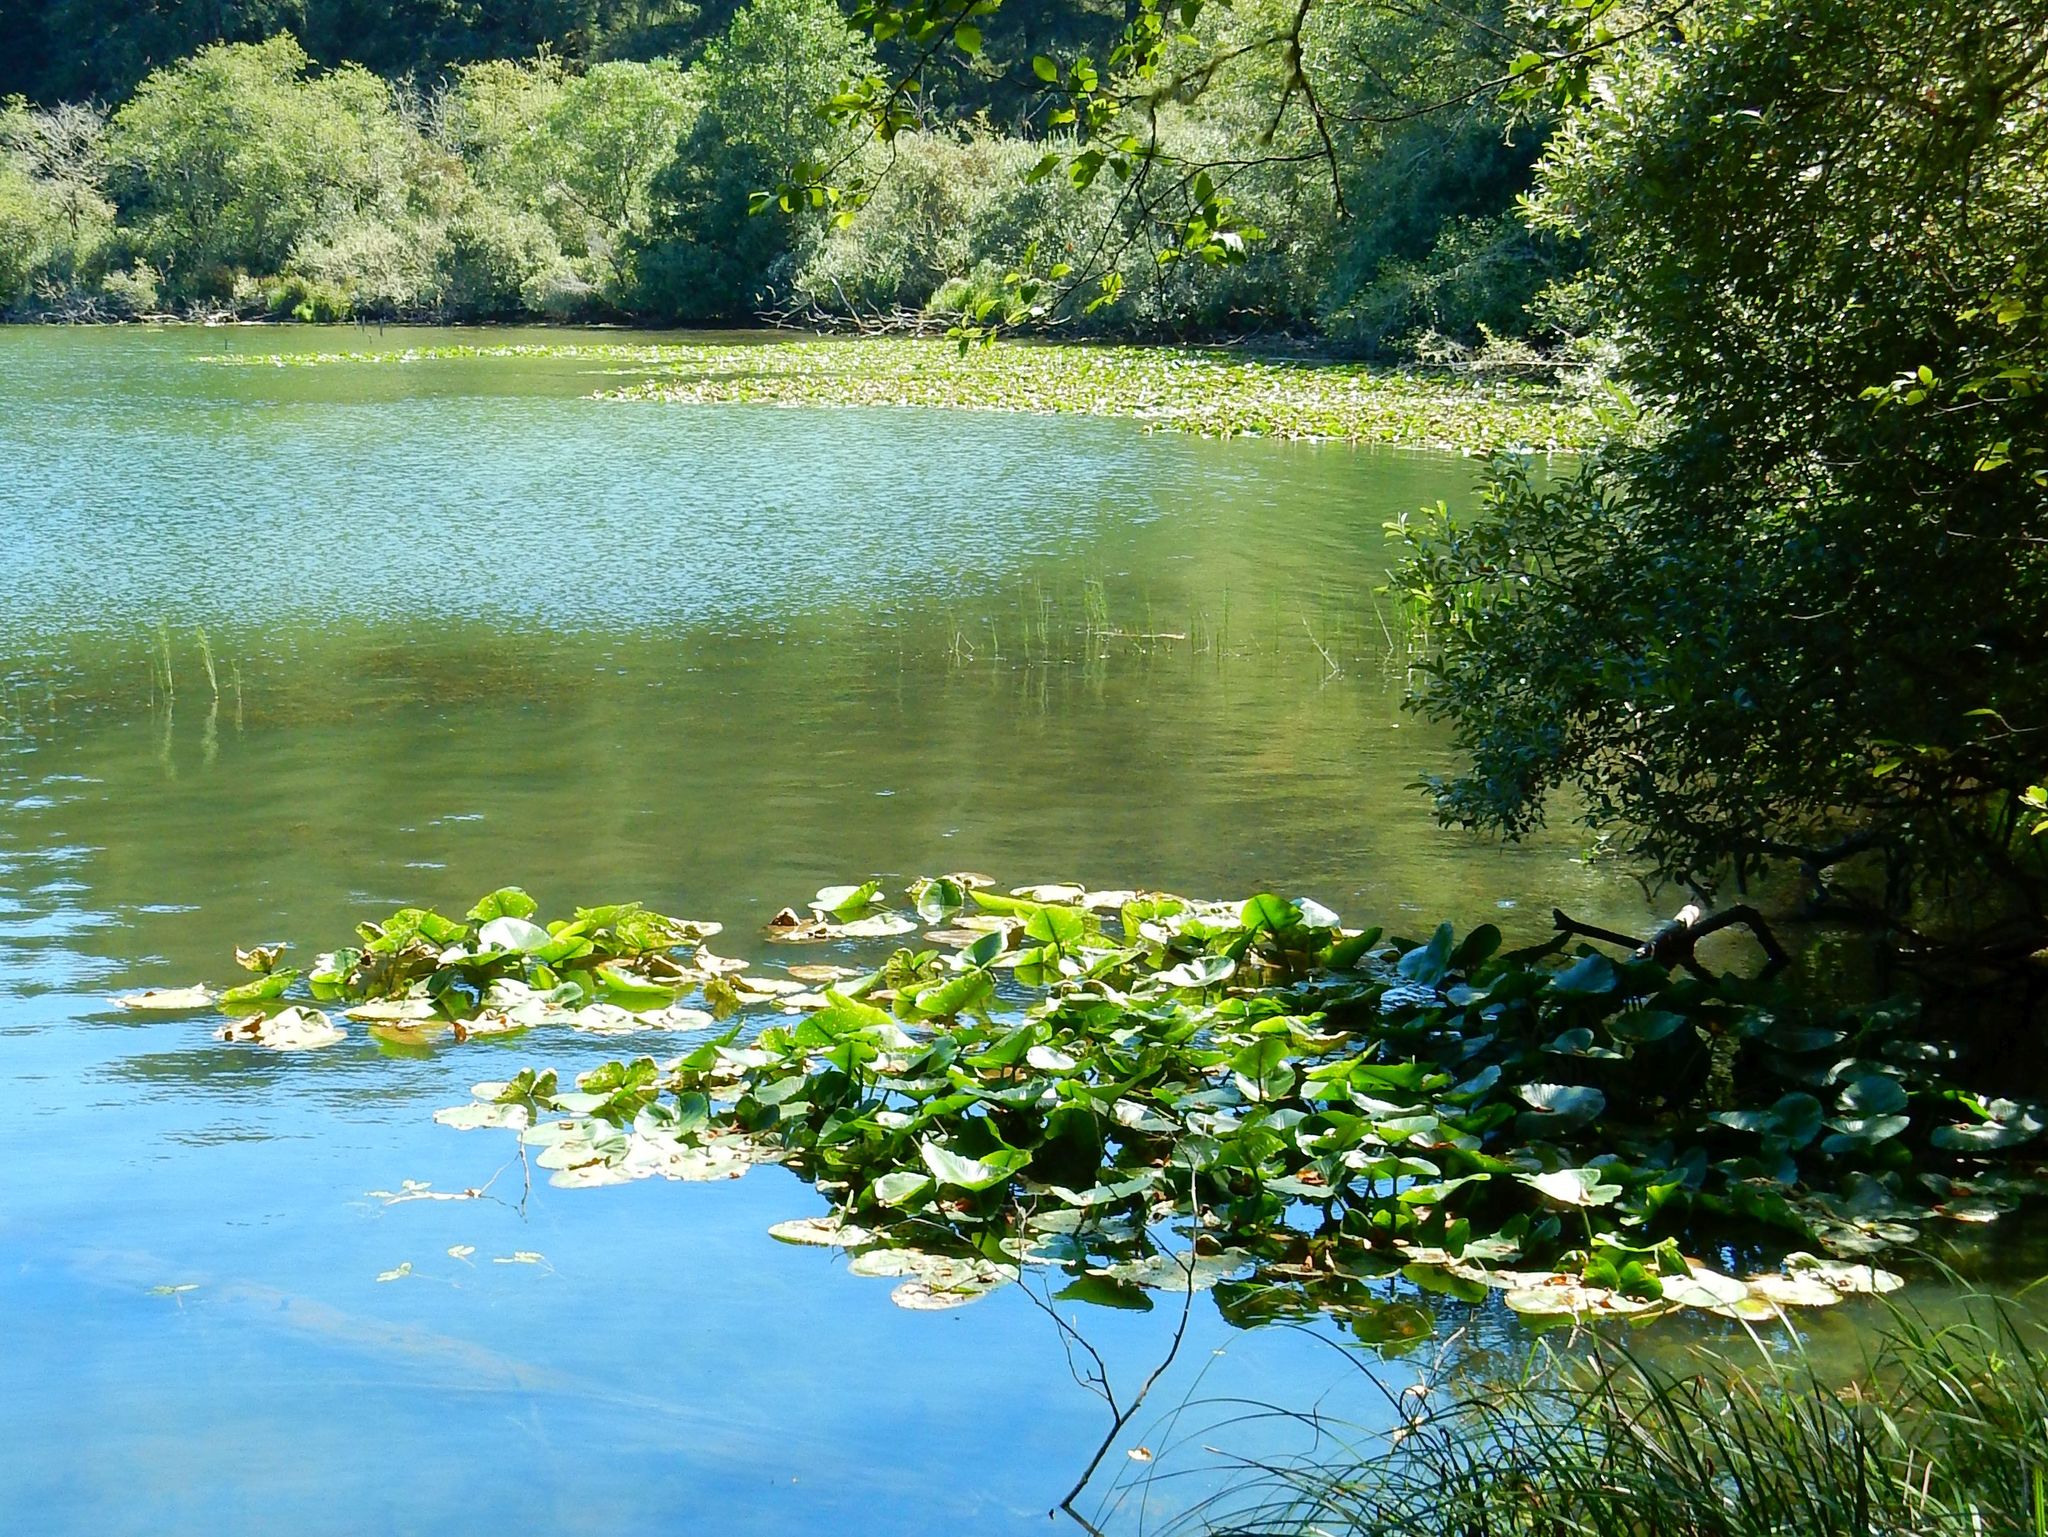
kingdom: Plantae
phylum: Tracheophyta
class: Magnoliopsida
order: Nymphaeales
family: Nymphaeaceae
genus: Nuphar
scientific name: Nuphar polysepala
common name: Rocky mountain cow-lily
